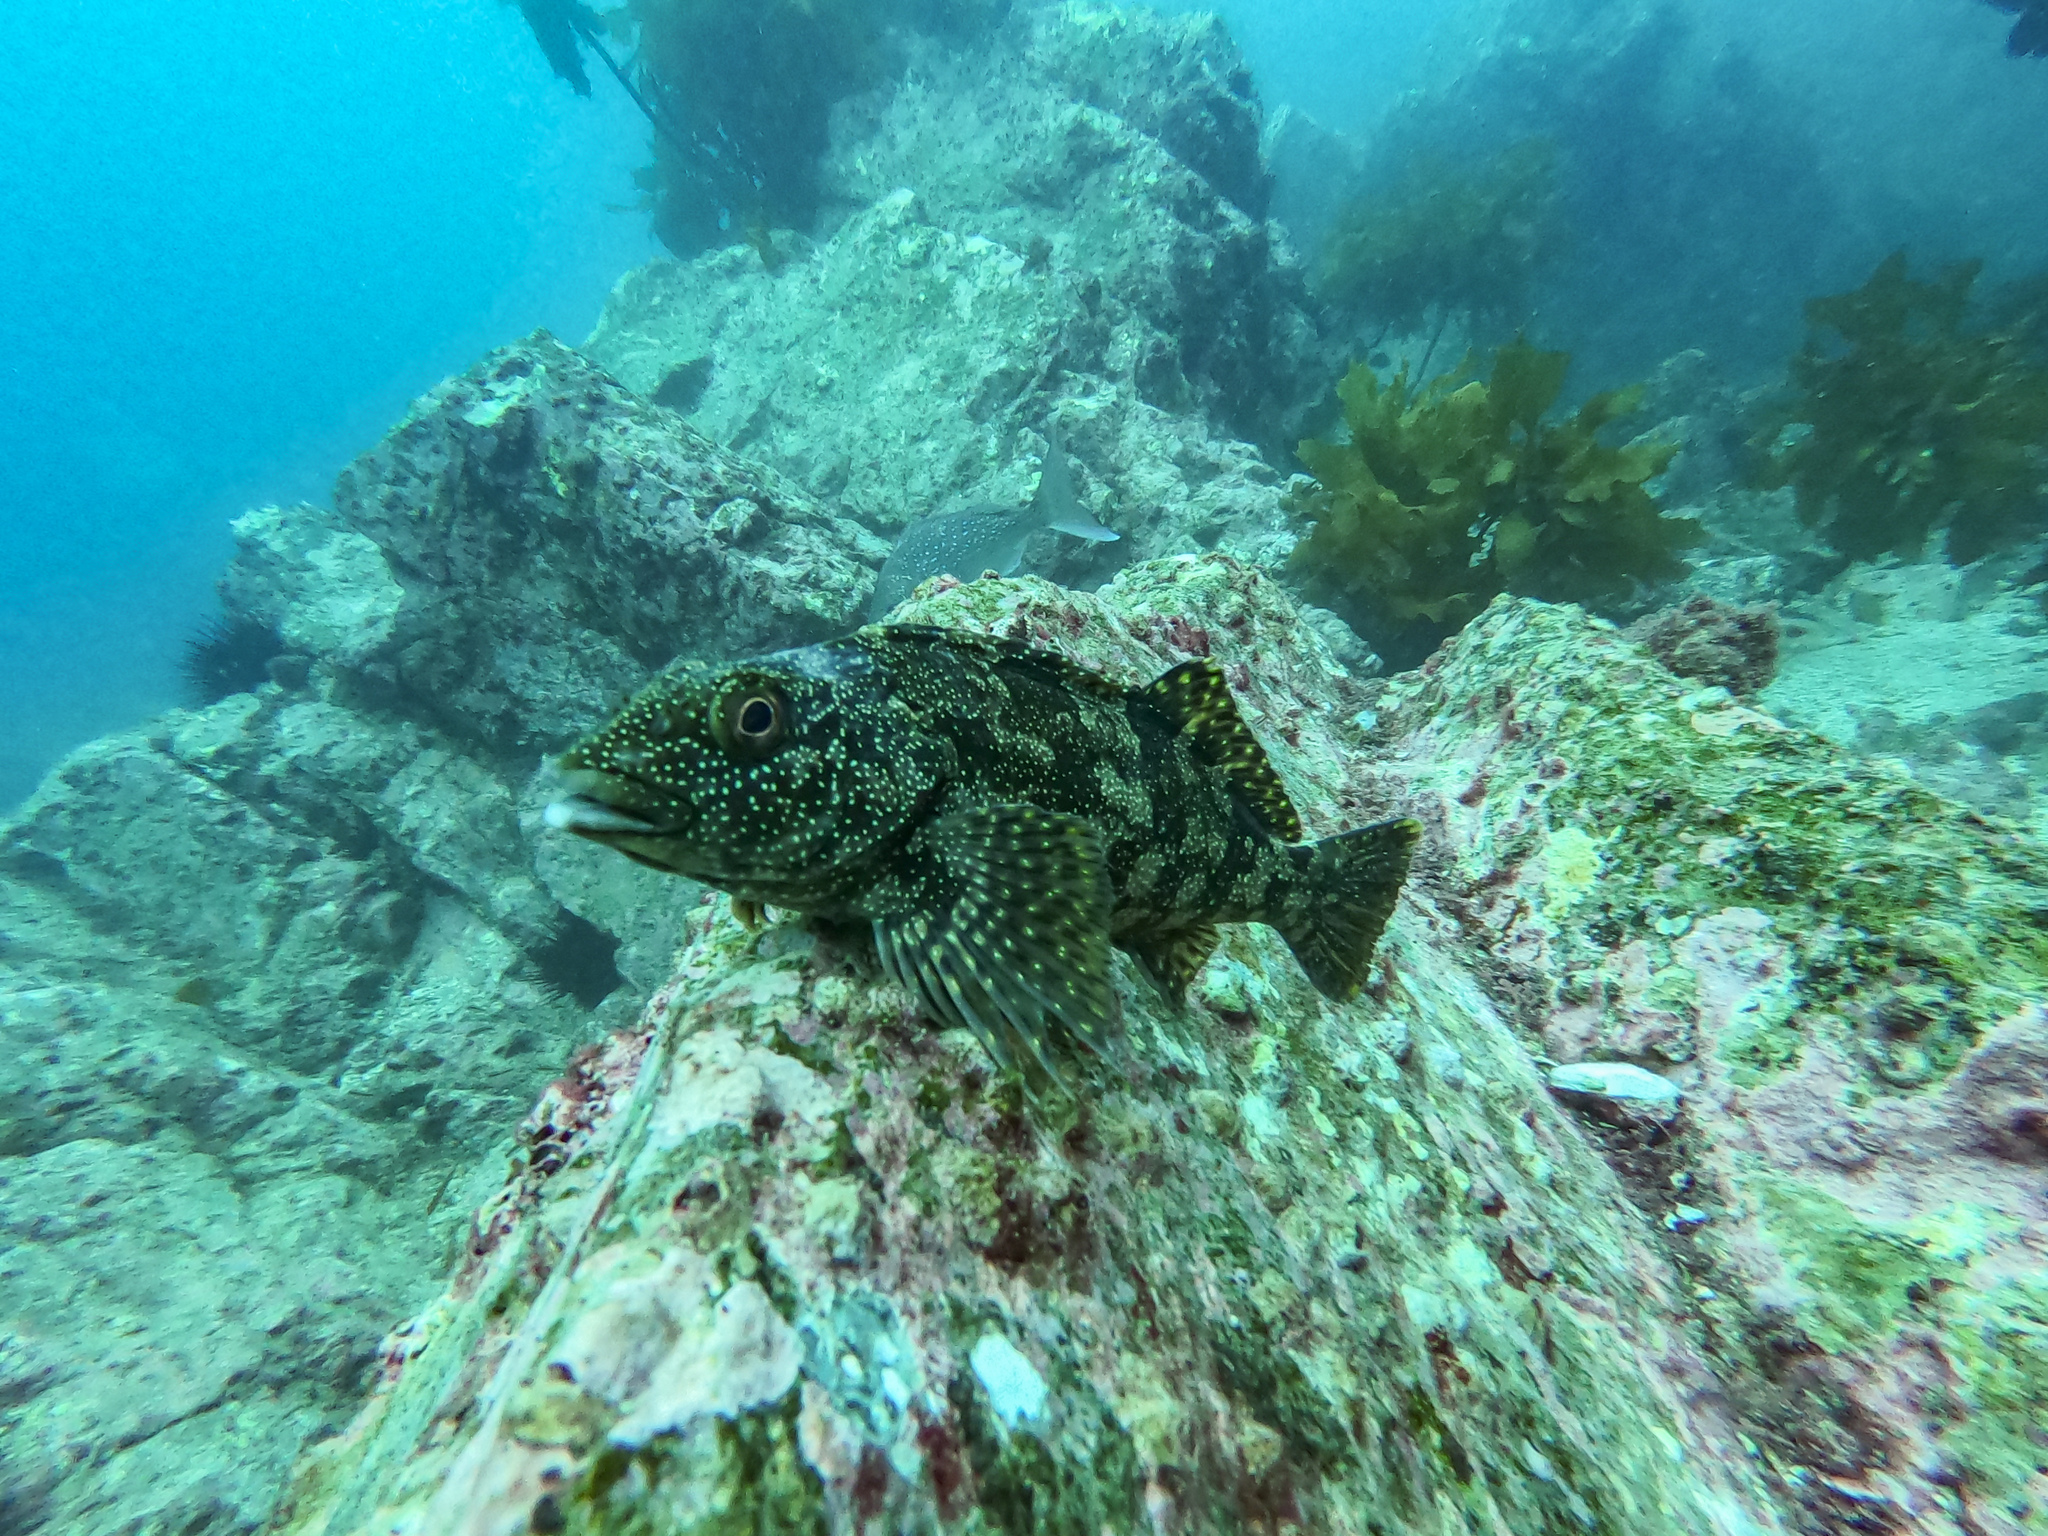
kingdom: Animalia
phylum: Chordata
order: Perciformes
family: Chironemidae
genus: Chironemus
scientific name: Chironemus marmoratus
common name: Kelpfish
